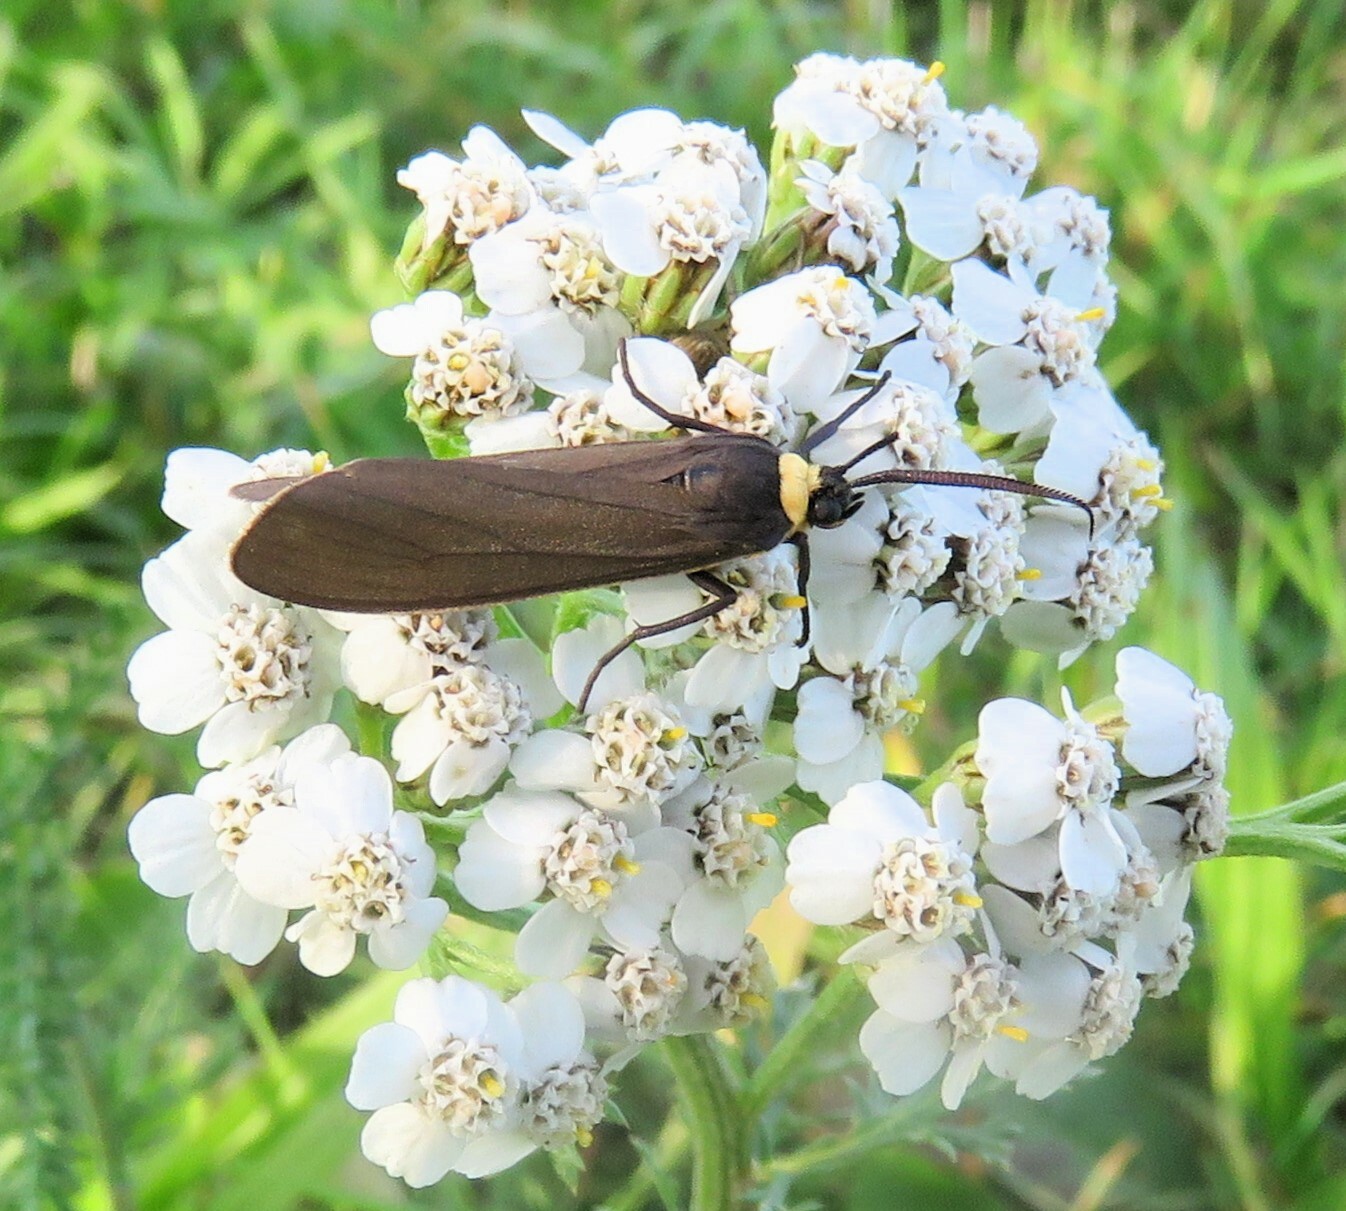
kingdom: Animalia
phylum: Arthropoda
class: Insecta
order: Lepidoptera
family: Erebidae
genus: Cisseps
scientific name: Cisseps fulvicollis
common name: Yellow-collared scape moth
